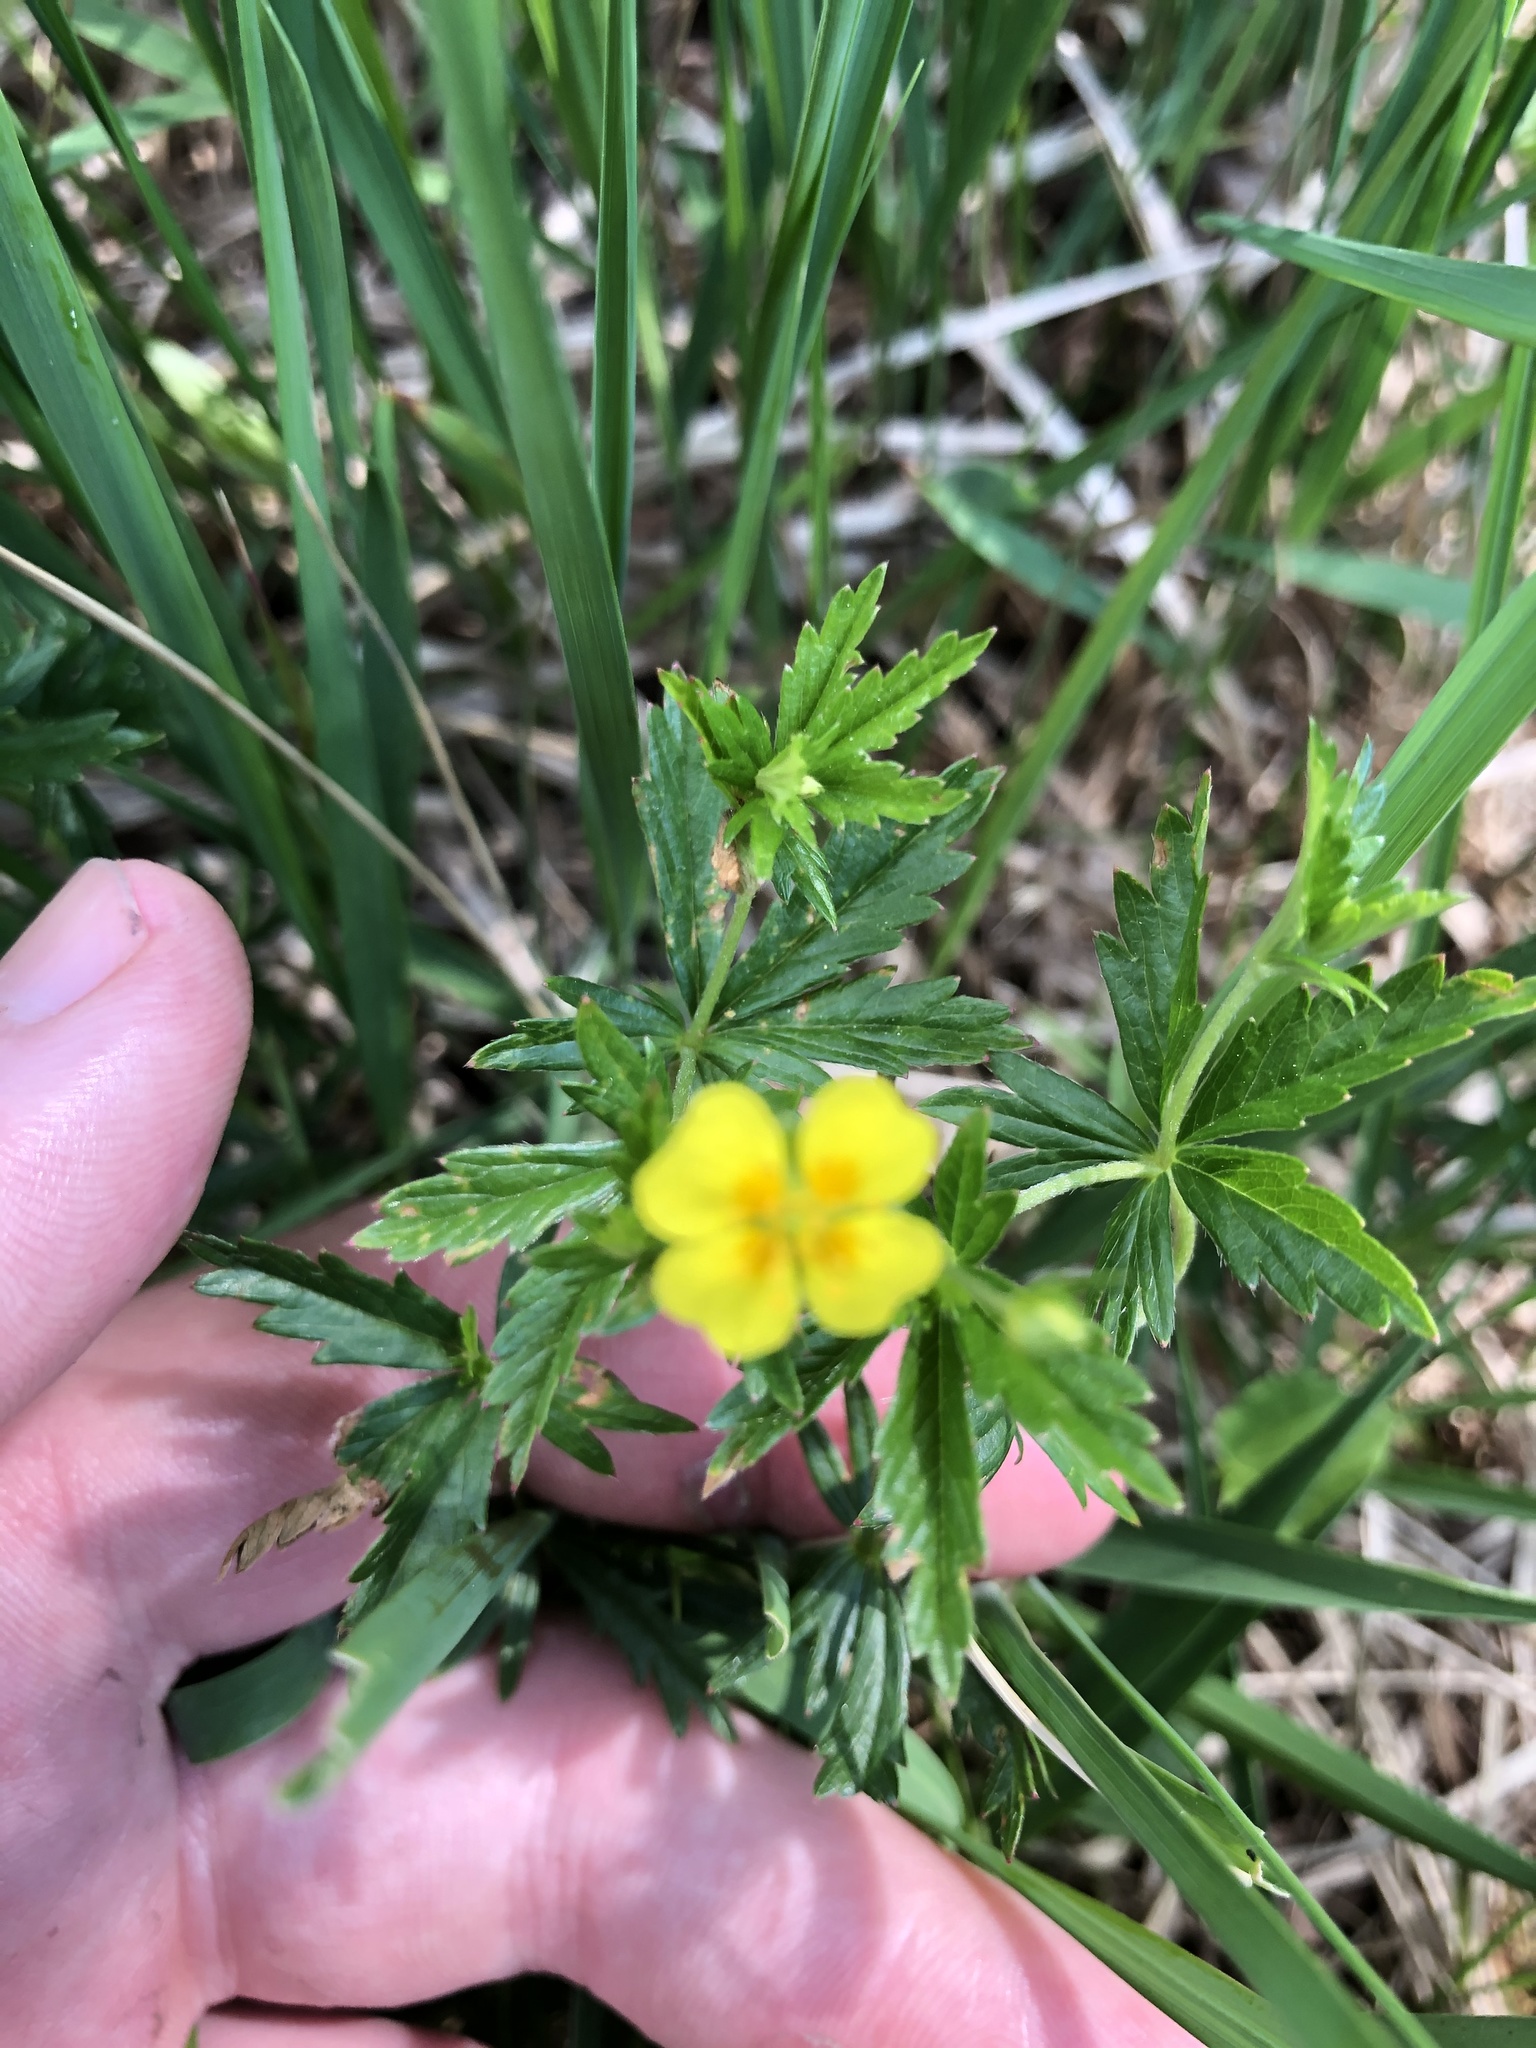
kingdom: Plantae
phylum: Tracheophyta
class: Magnoliopsida
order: Rosales
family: Rosaceae
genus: Potentilla
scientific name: Potentilla erecta
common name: Tormentil
